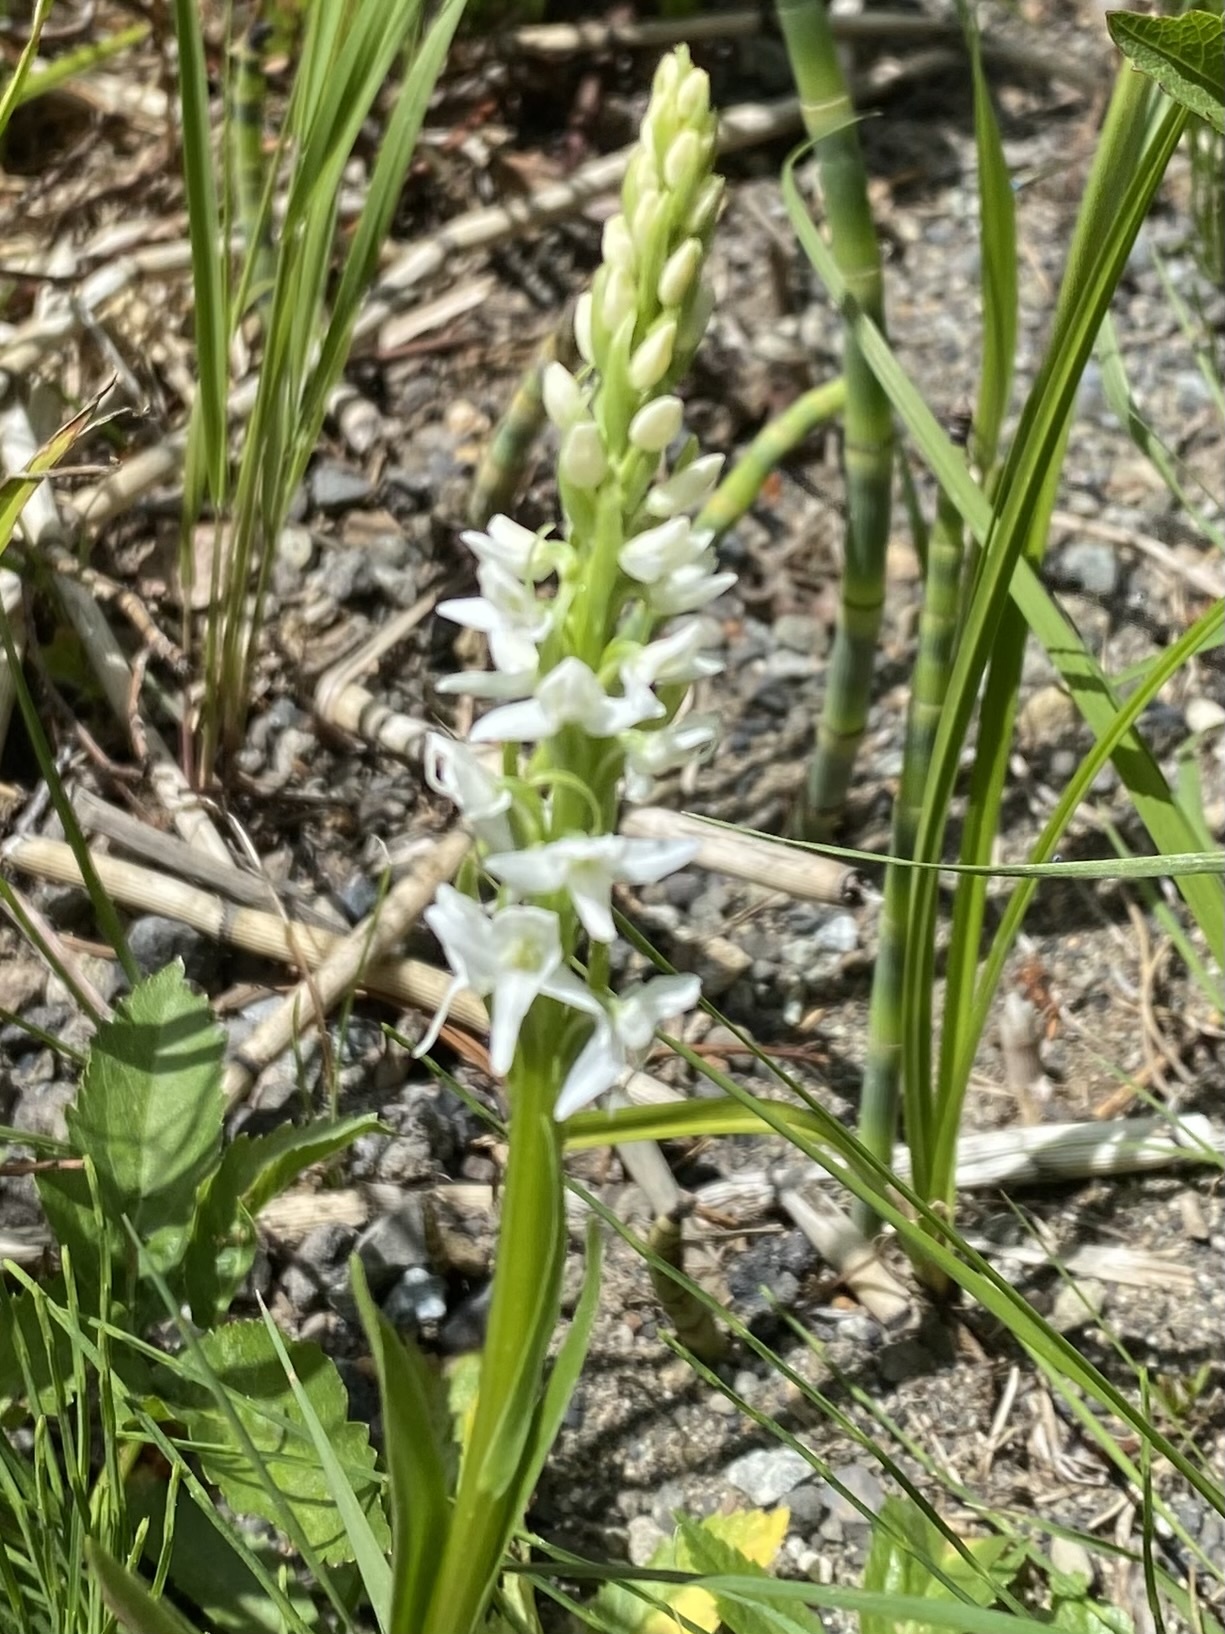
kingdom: Plantae
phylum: Tracheophyta
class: Liliopsida
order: Asparagales
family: Orchidaceae
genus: Platanthera
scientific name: Platanthera dilatata
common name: Bog candles
